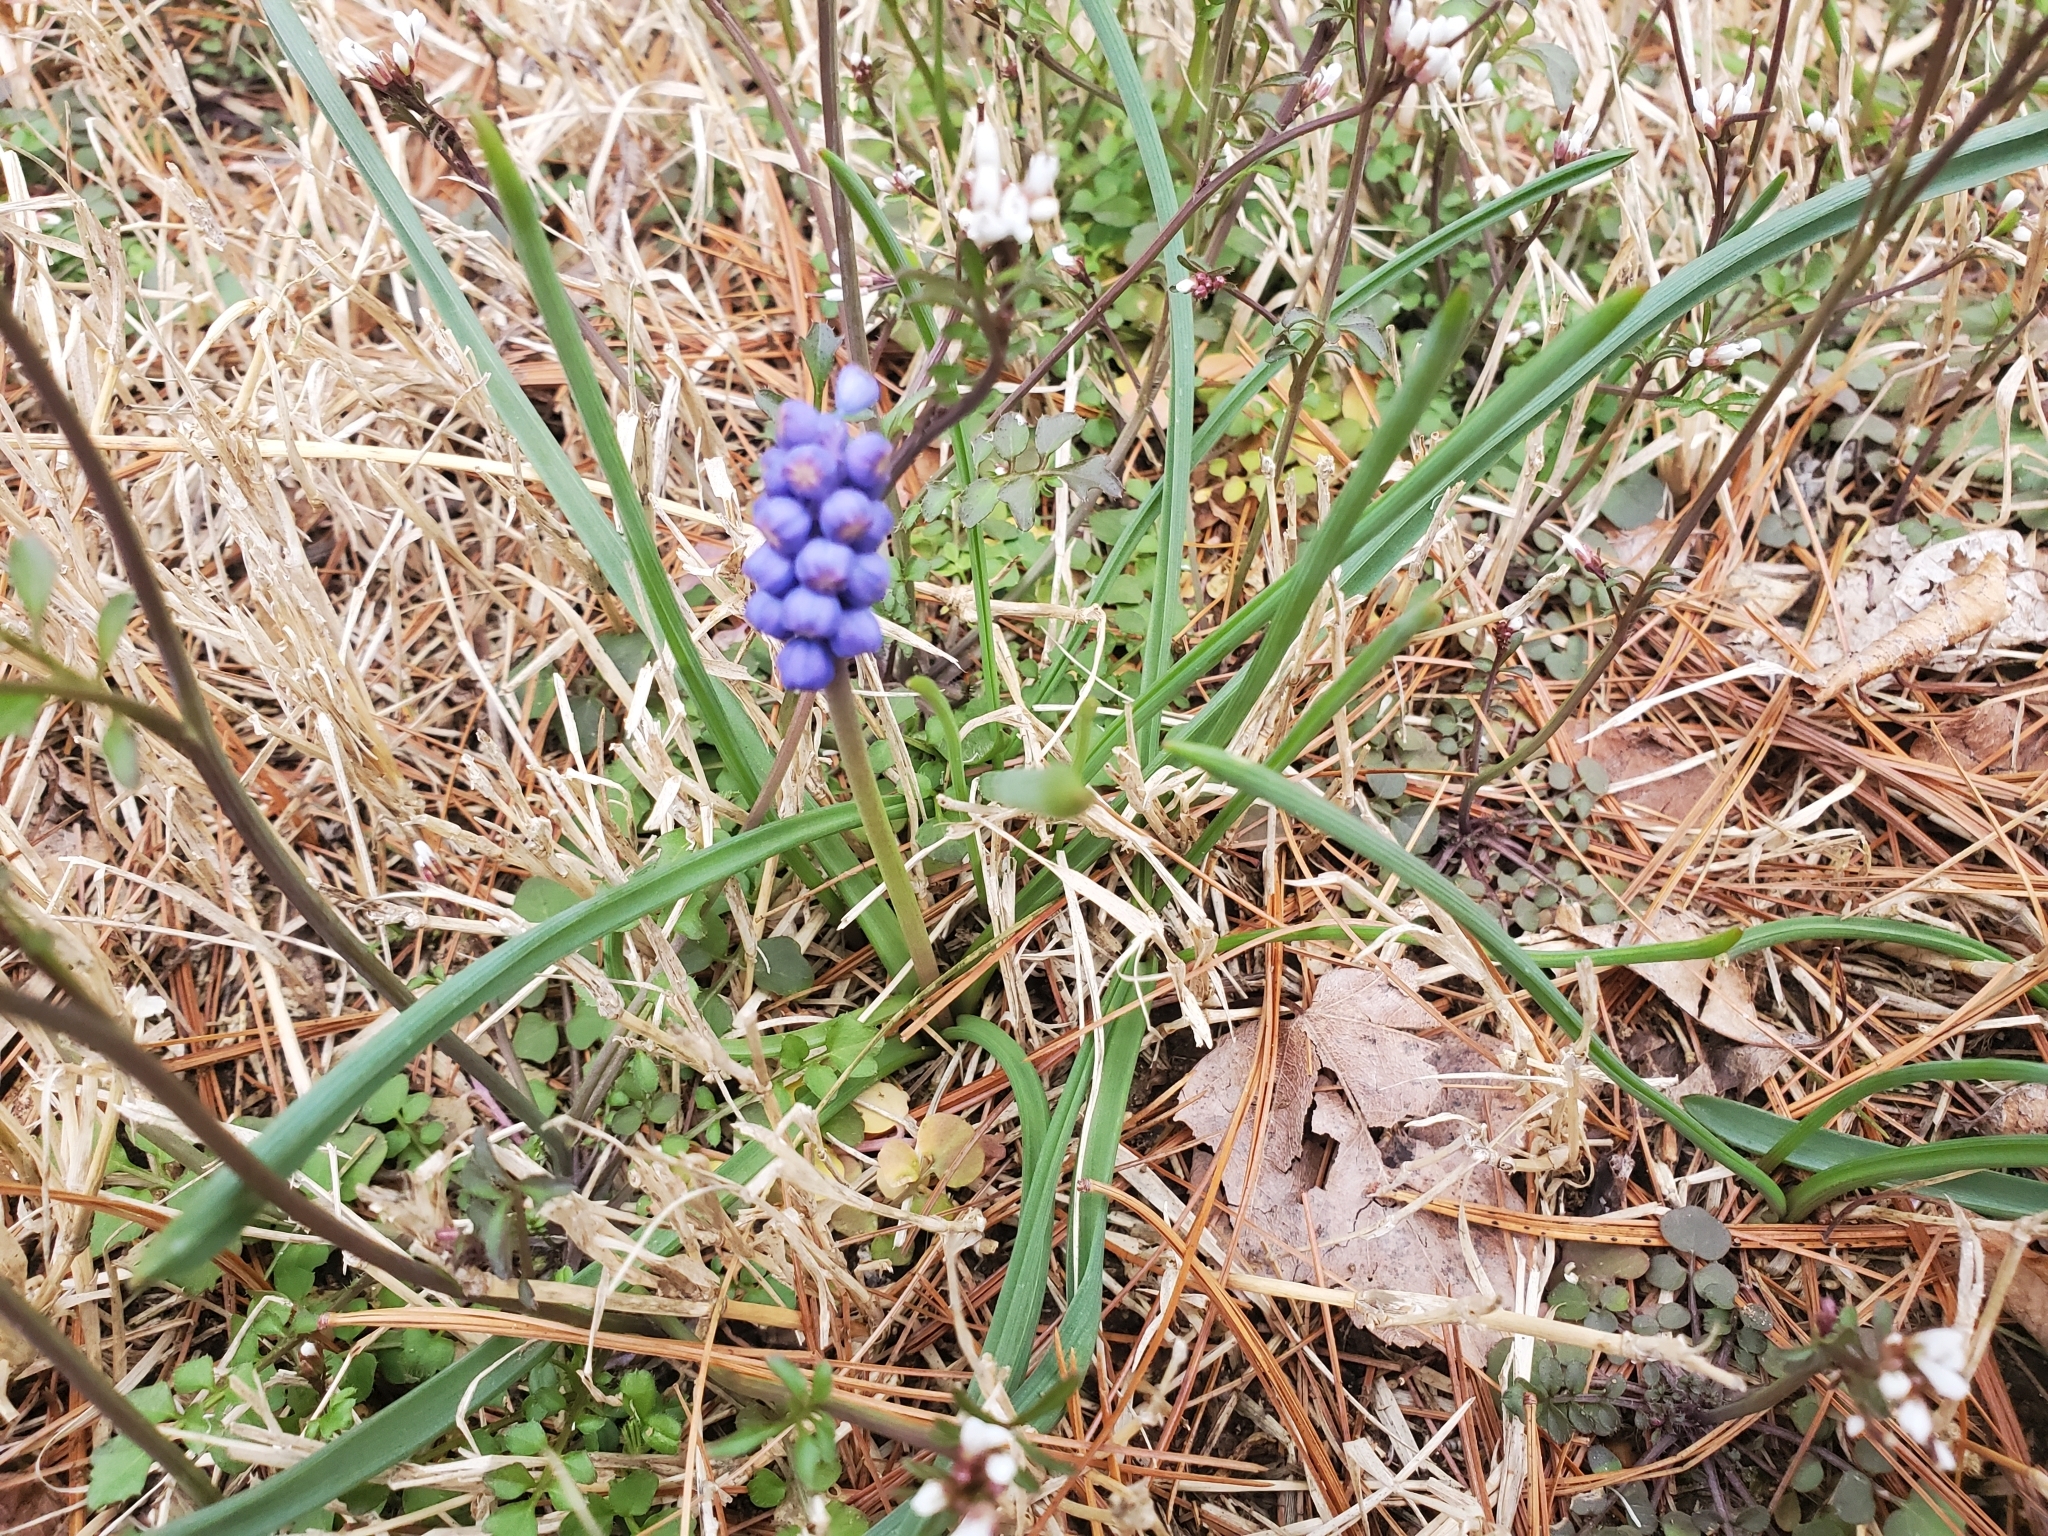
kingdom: Plantae
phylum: Tracheophyta
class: Liliopsida
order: Asparagales
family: Asparagaceae
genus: Muscari
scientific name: Muscari botryoides
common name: Compact grape-hyacinth
